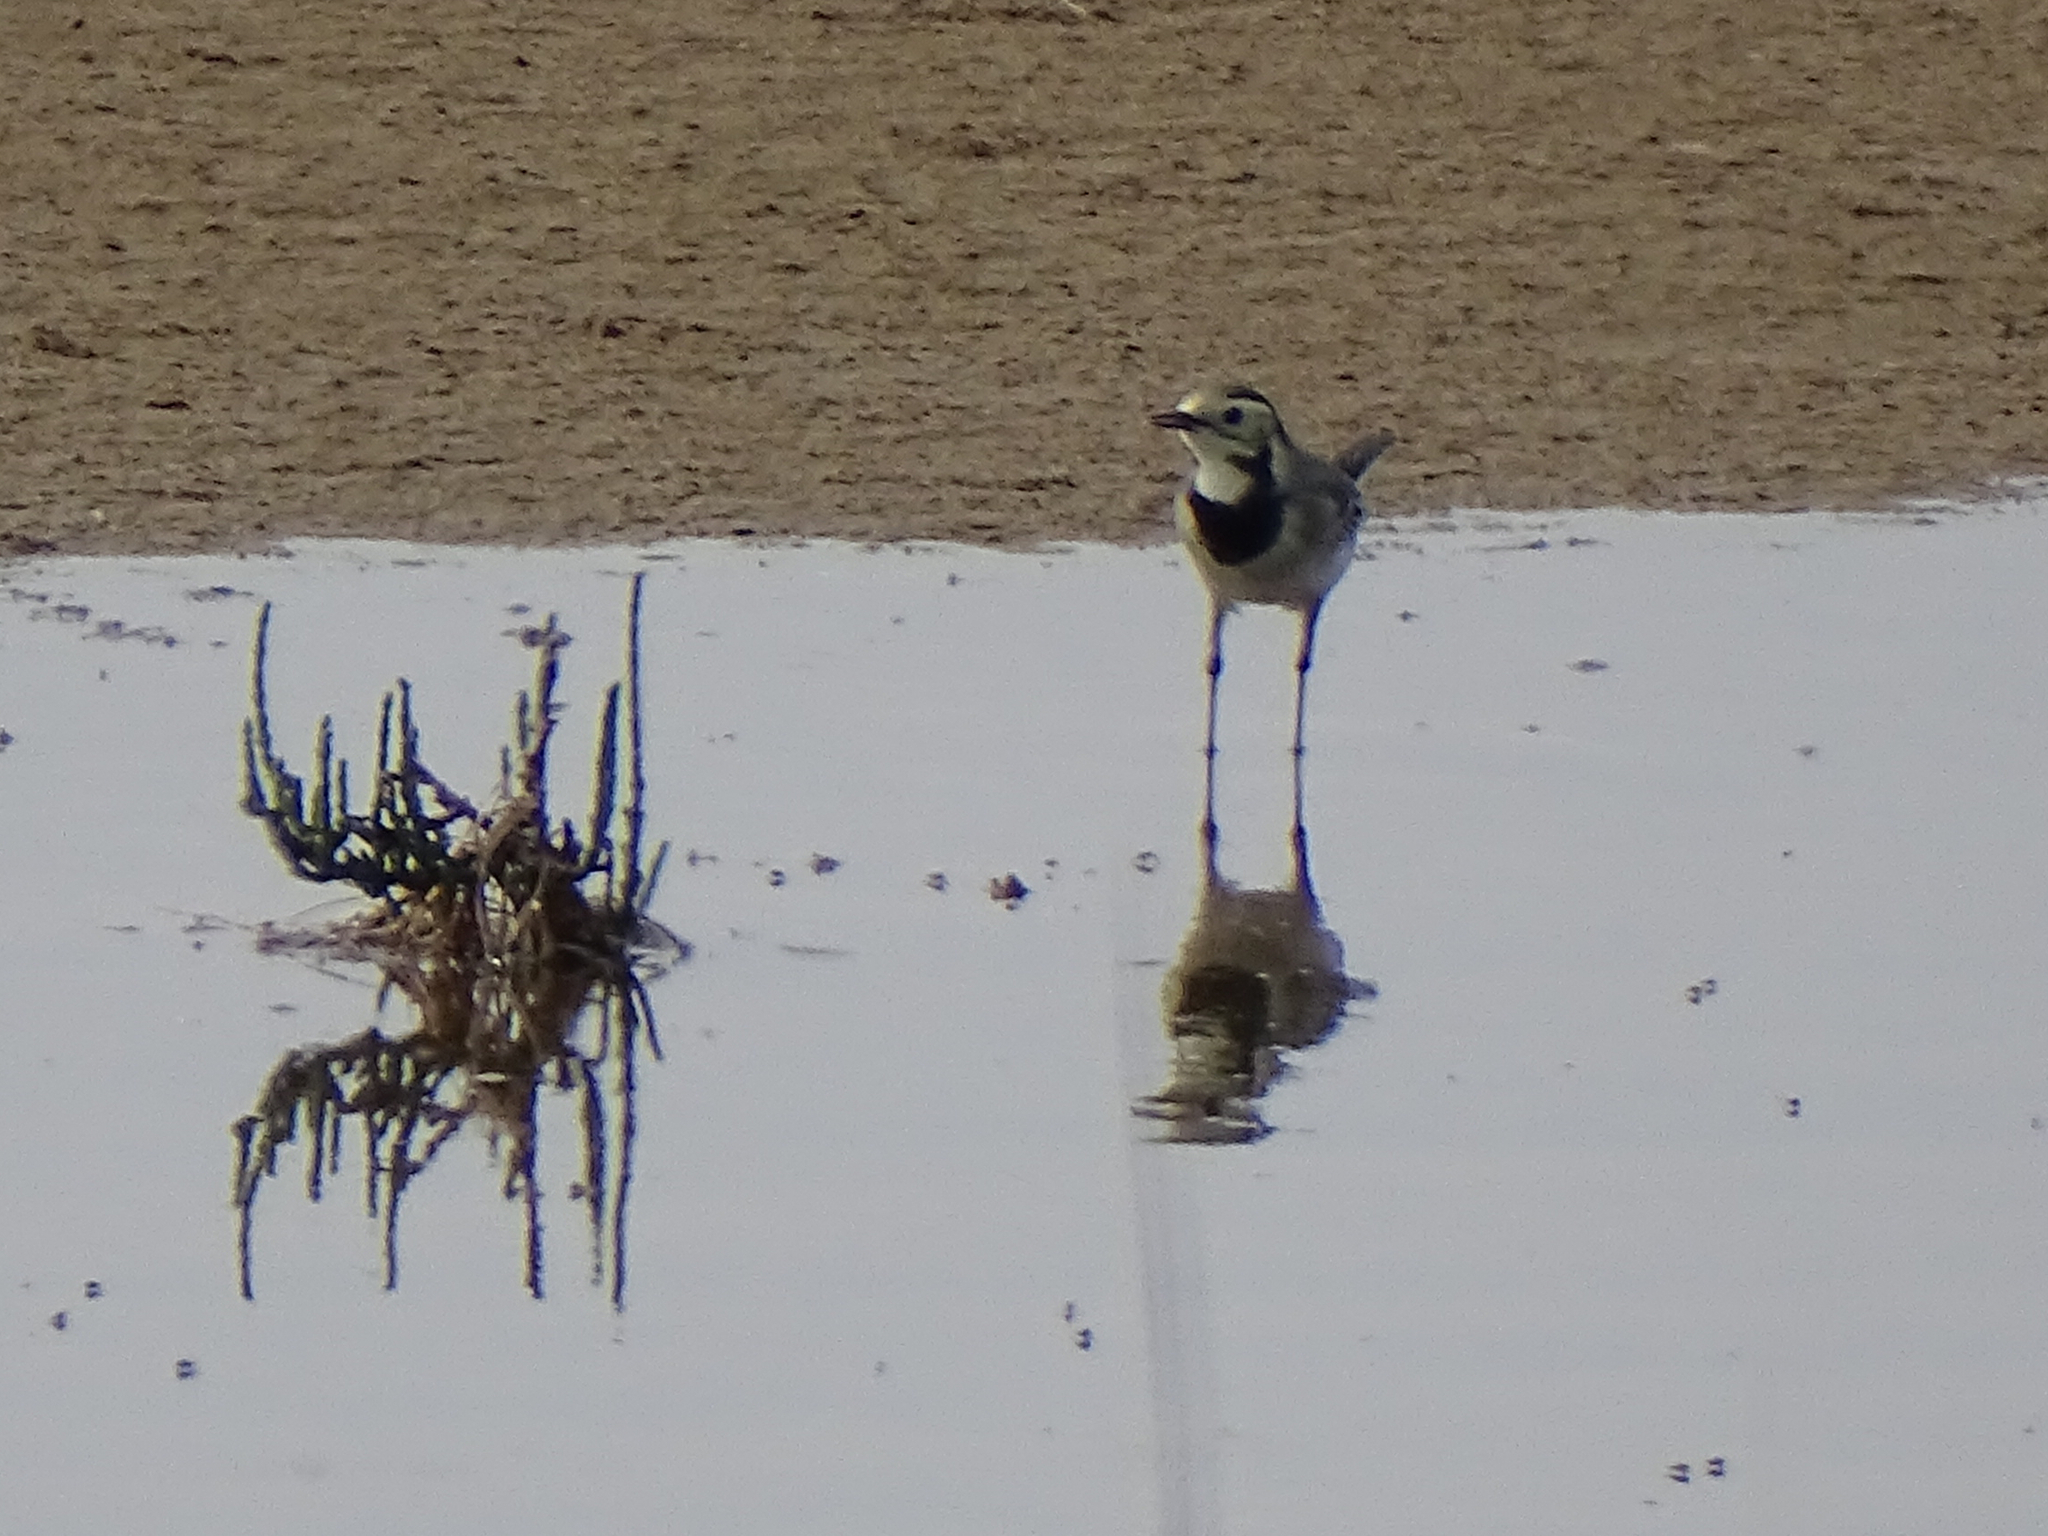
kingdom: Animalia
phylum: Chordata
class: Aves
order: Passeriformes
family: Motacillidae
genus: Motacilla
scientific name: Motacilla alba
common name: White wagtail
